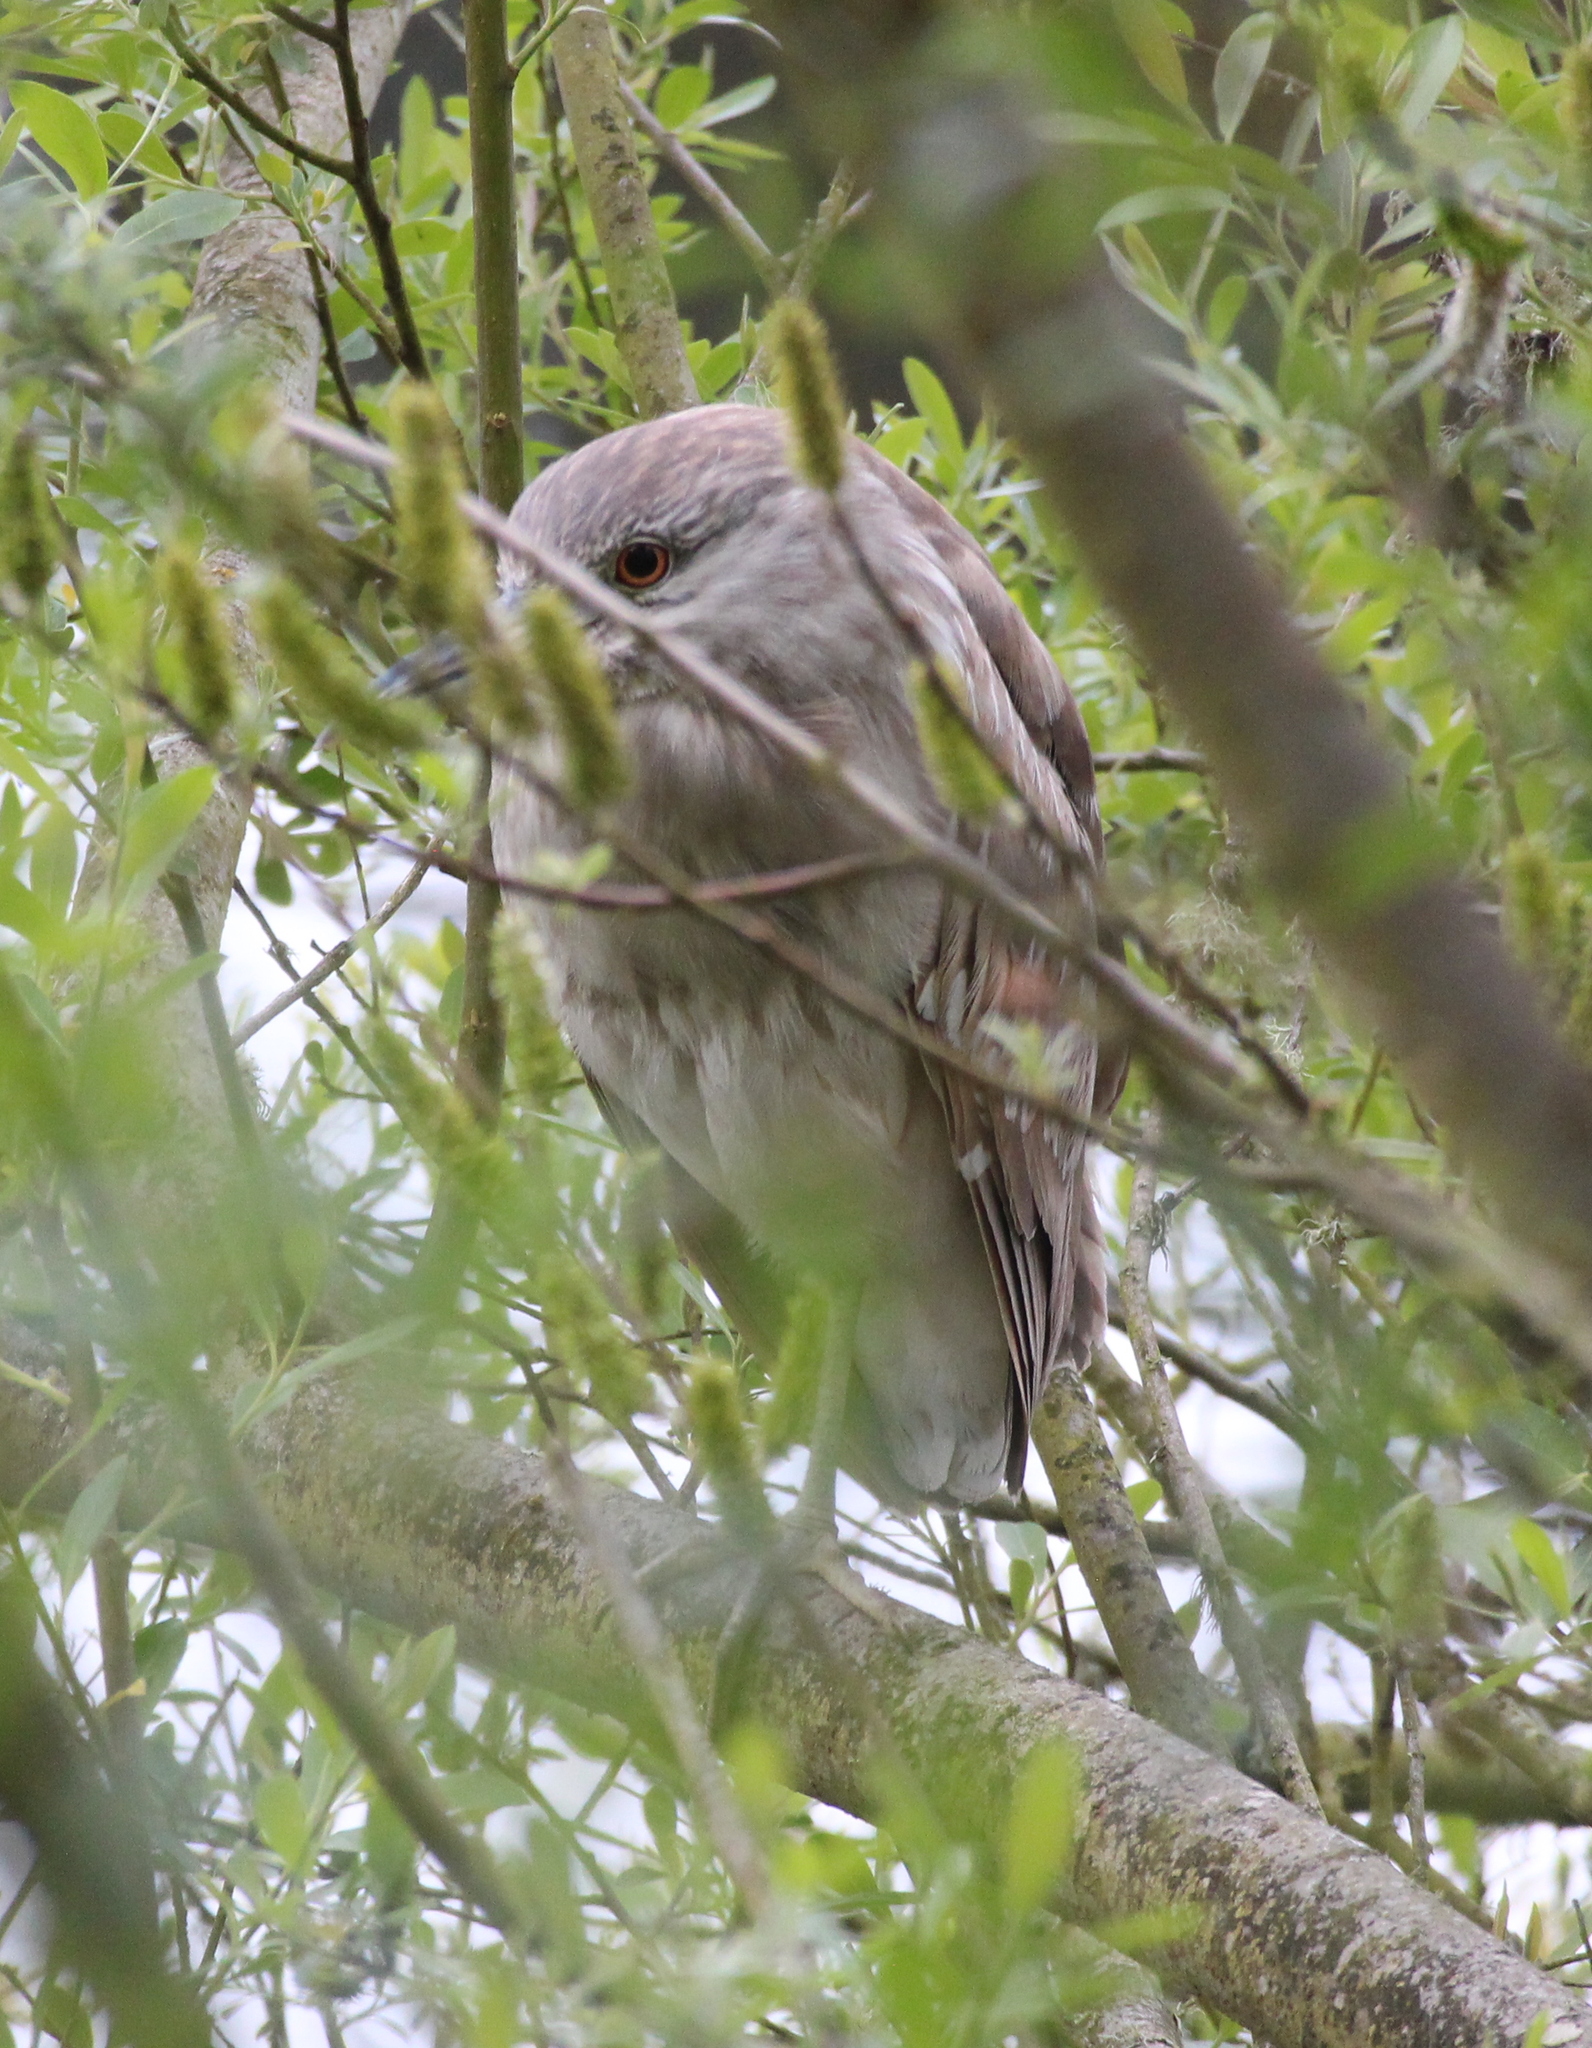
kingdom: Animalia
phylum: Chordata
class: Aves
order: Pelecaniformes
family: Ardeidae
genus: Nycticorax
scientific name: Nycticorax nycticorax
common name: Black-crowned night heron
